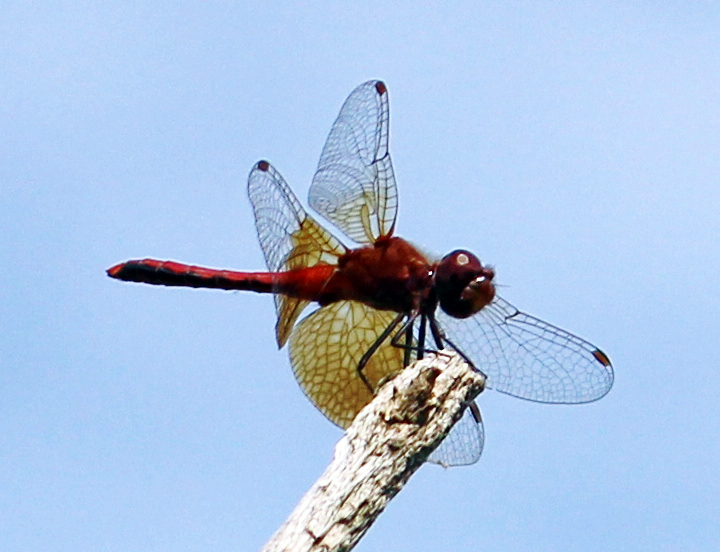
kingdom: Animalia
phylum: Arthropoda
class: Insecta
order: Odonata
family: Libellulidae
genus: Sympetrum
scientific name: Sympetrum semicinctum
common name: Band-winged meadowhawk
